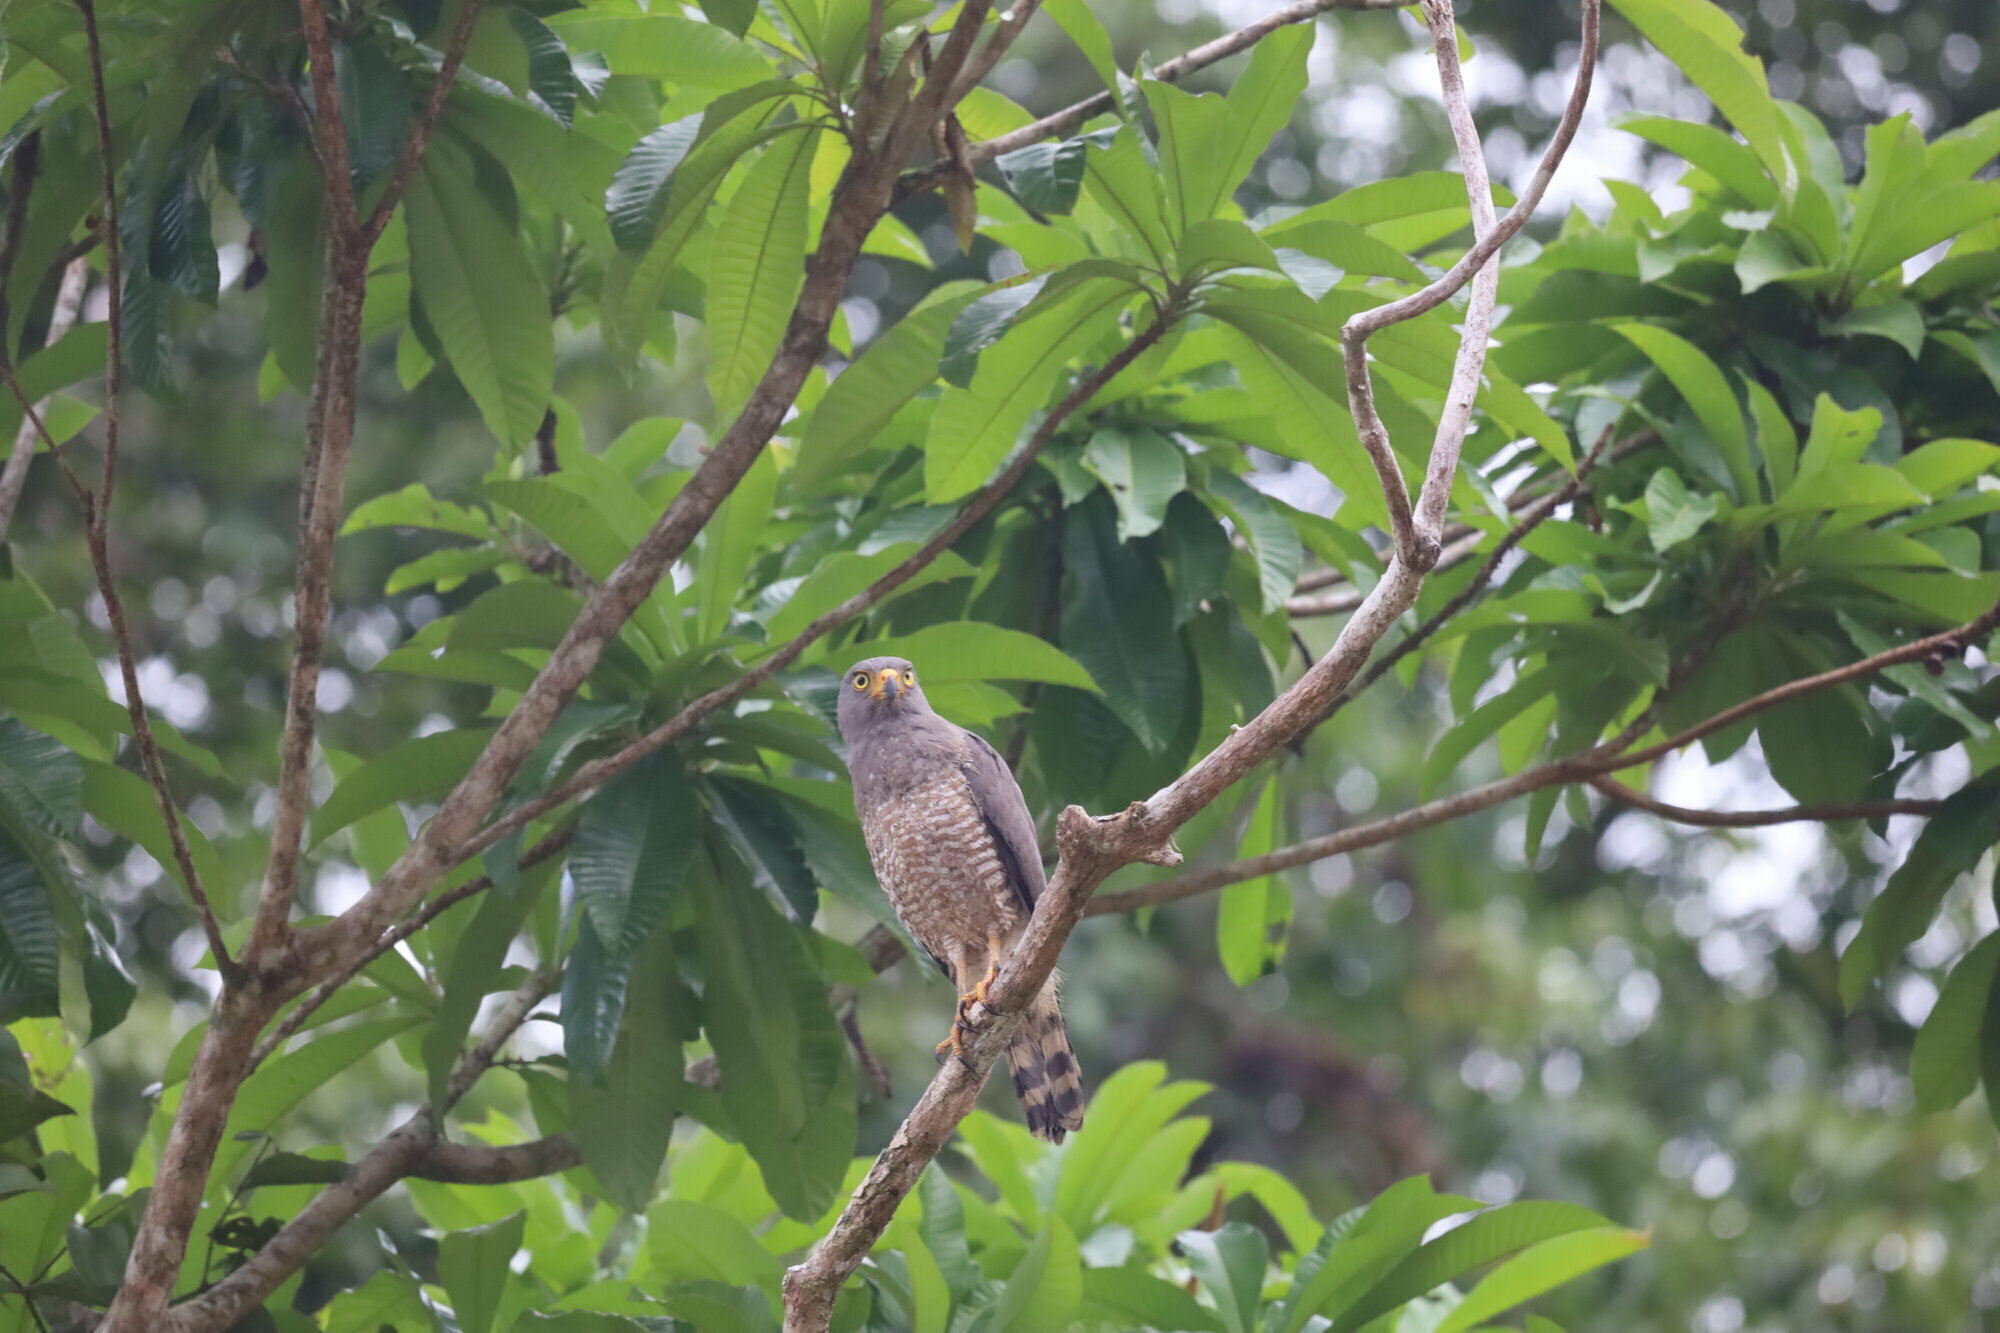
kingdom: Animalia
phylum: Chordata
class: Aves
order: Accipitriformes
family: Accipitridae
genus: Rupornis
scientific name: Rupornis magnirostris
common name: Roadside hawk
